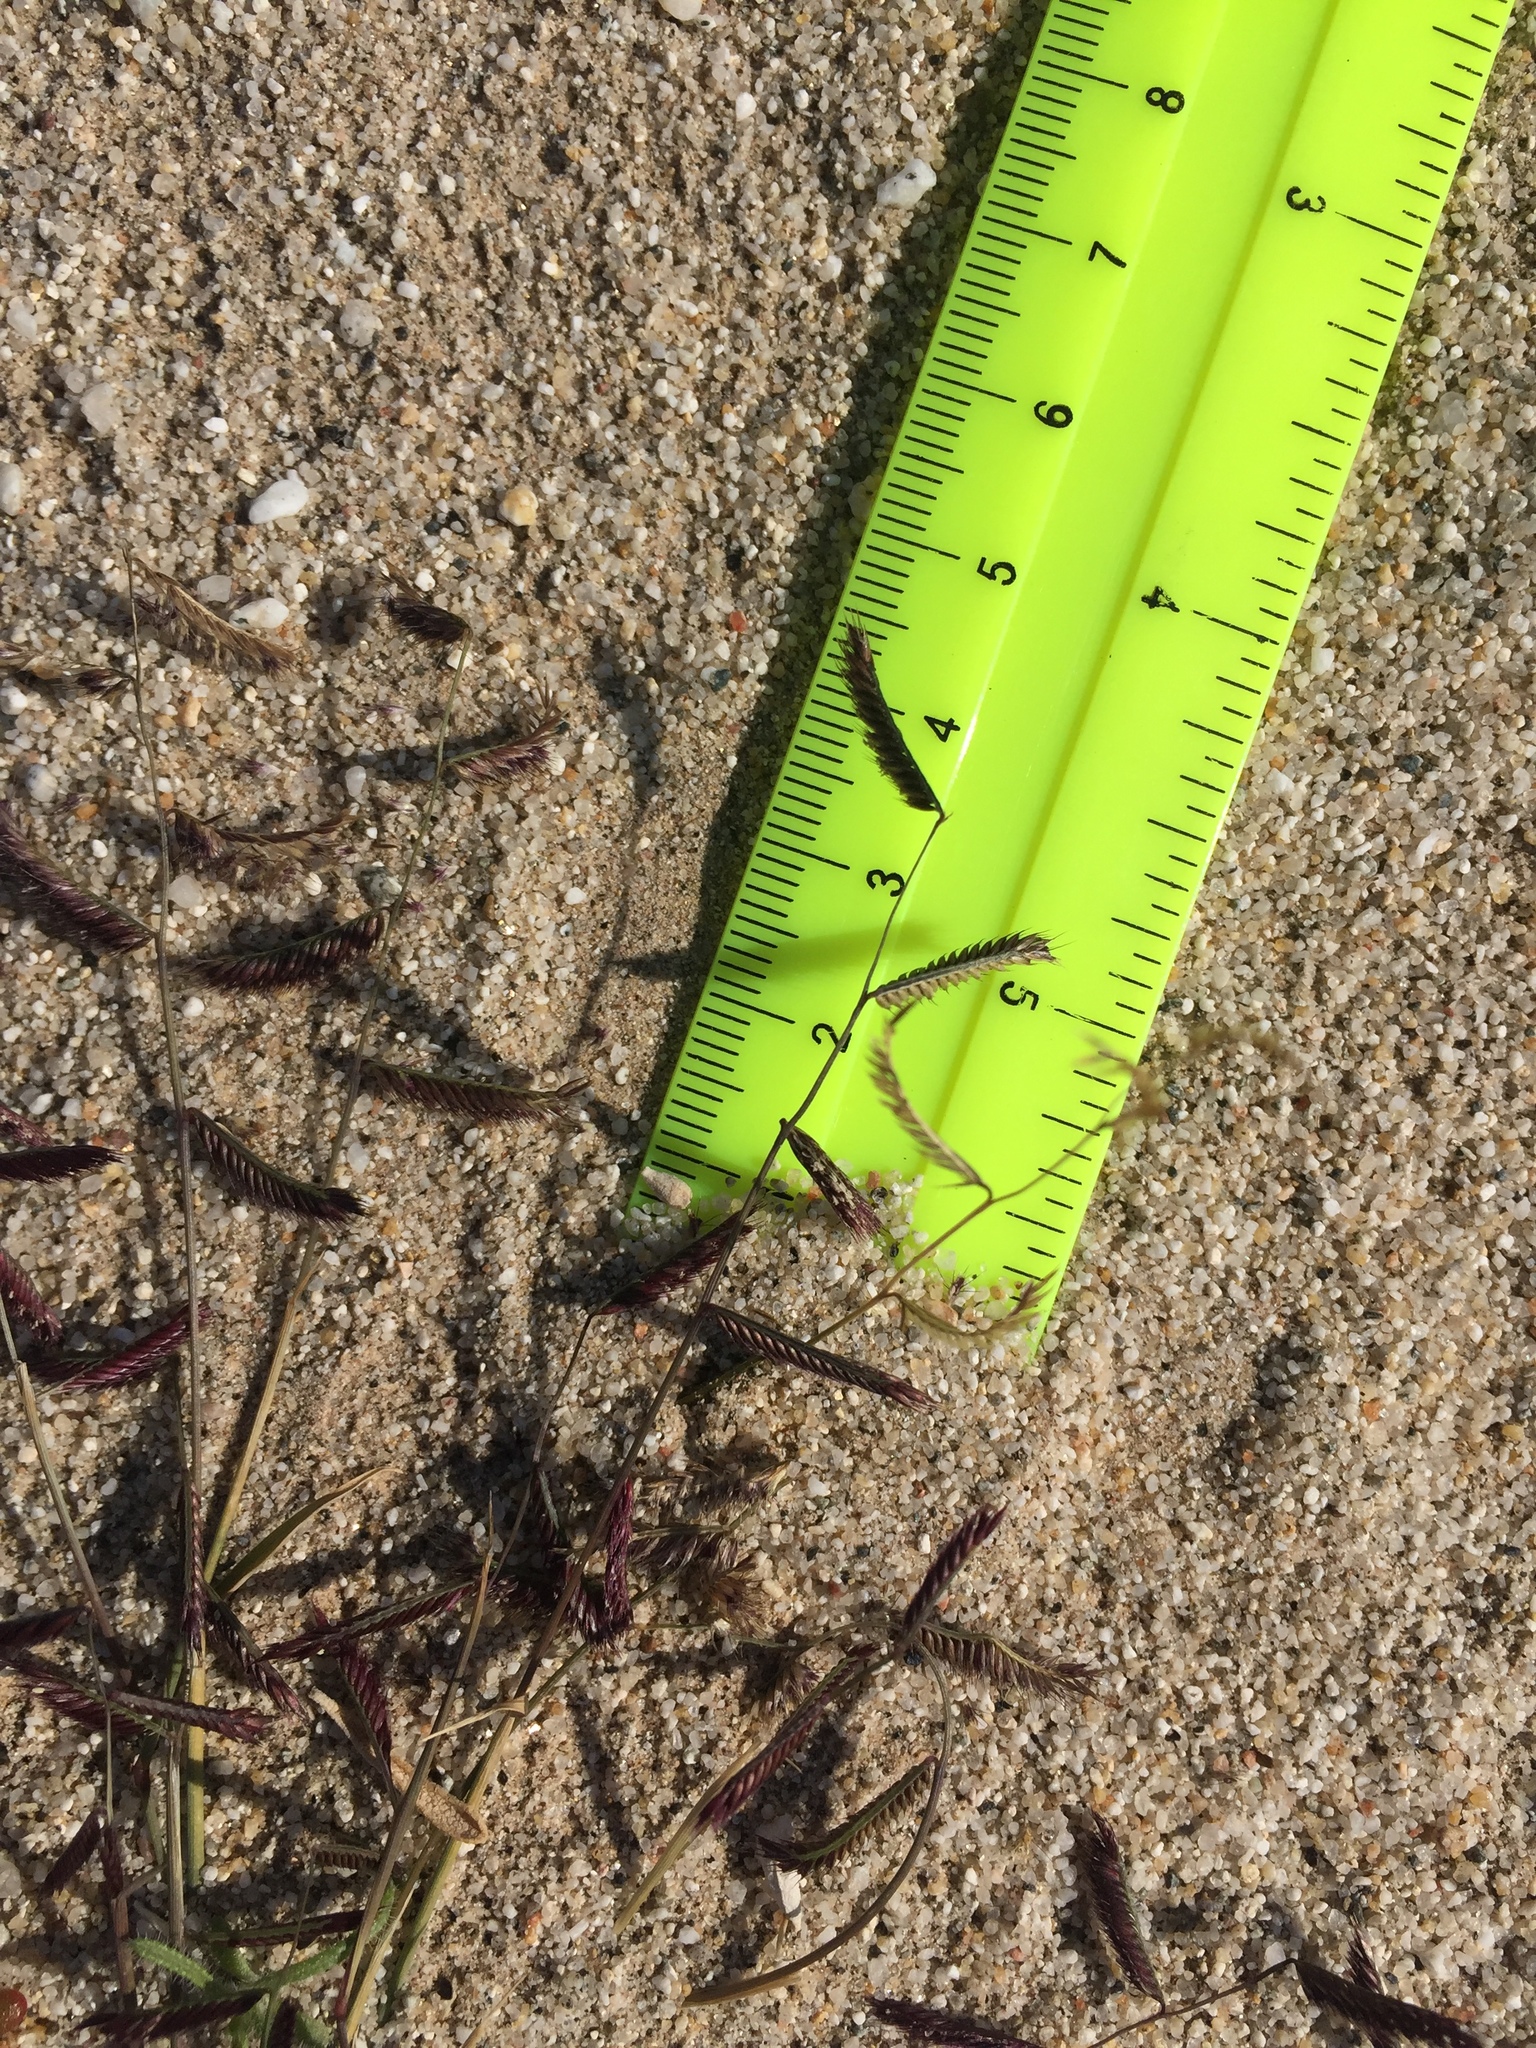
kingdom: Plantae
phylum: Tracheophyta
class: Liliopsida
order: Poales
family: Poaceae
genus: Bouteloua
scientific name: Bouteloua barbata
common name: Six-weeks grama
